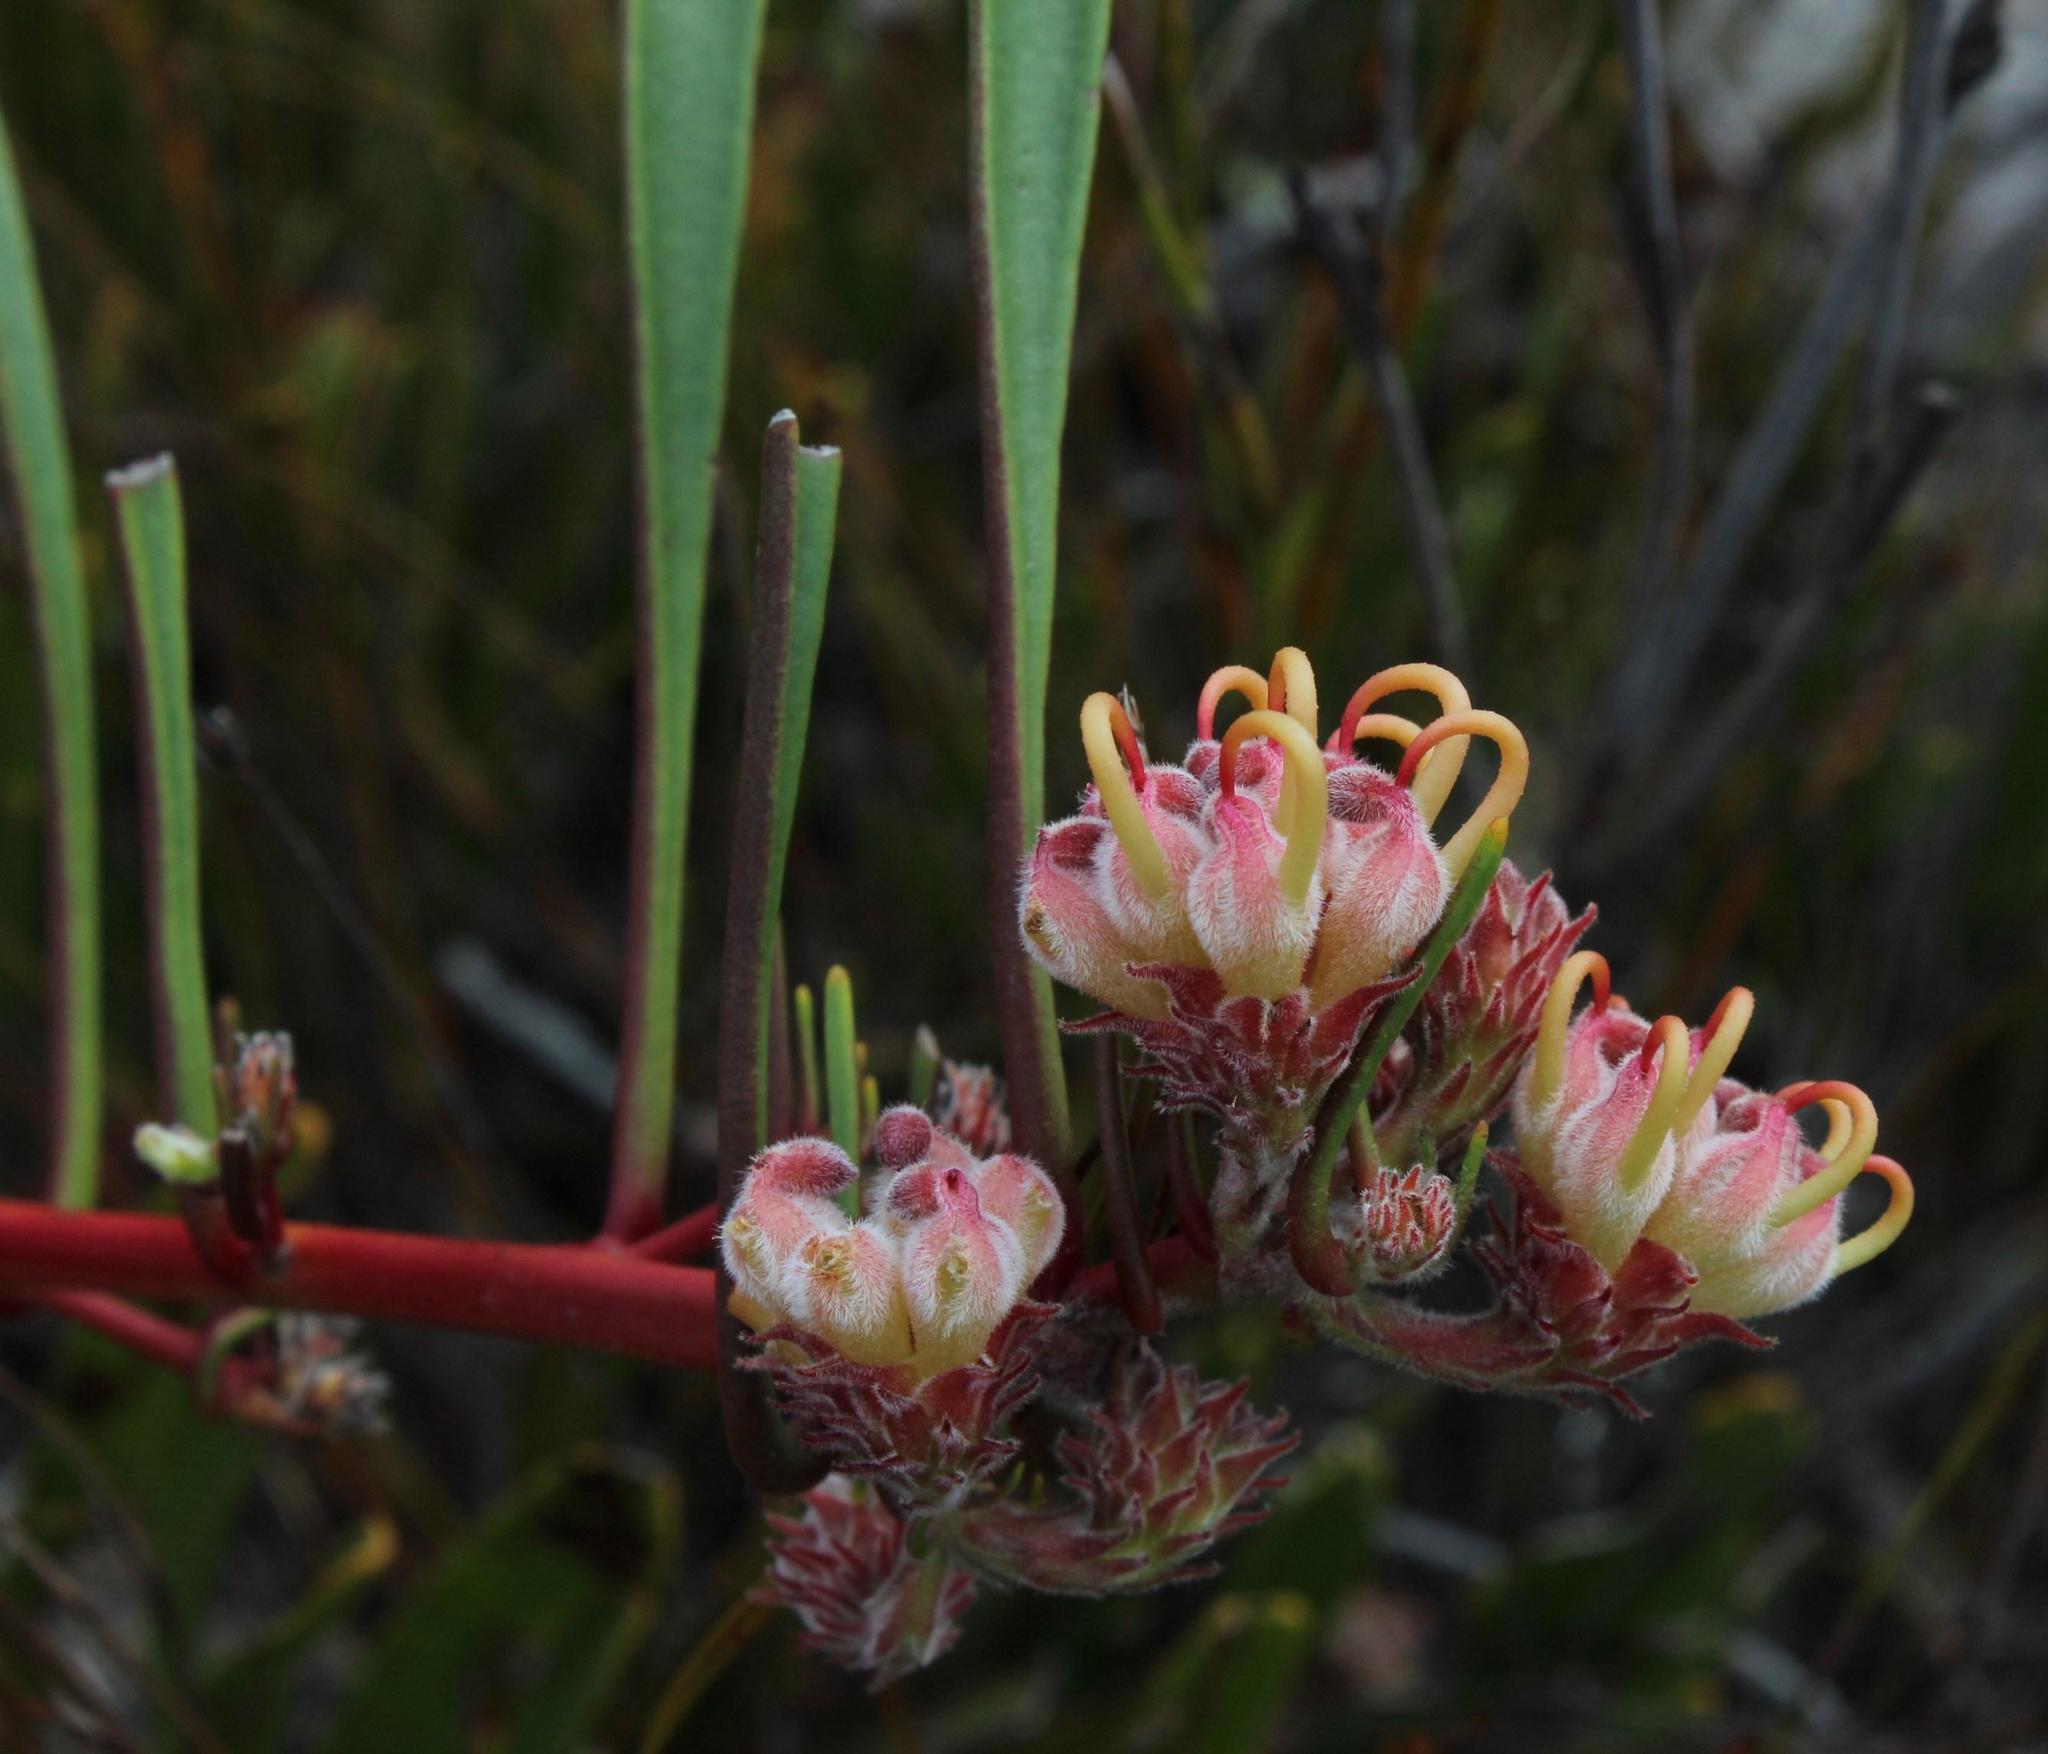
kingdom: Plantae
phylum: Tracheophyta
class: Magnoliopsida
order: Proteales
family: Proteaceae
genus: Leucospermum
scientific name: Leucospermum harpagonatum
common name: Mcgregor pincushion
